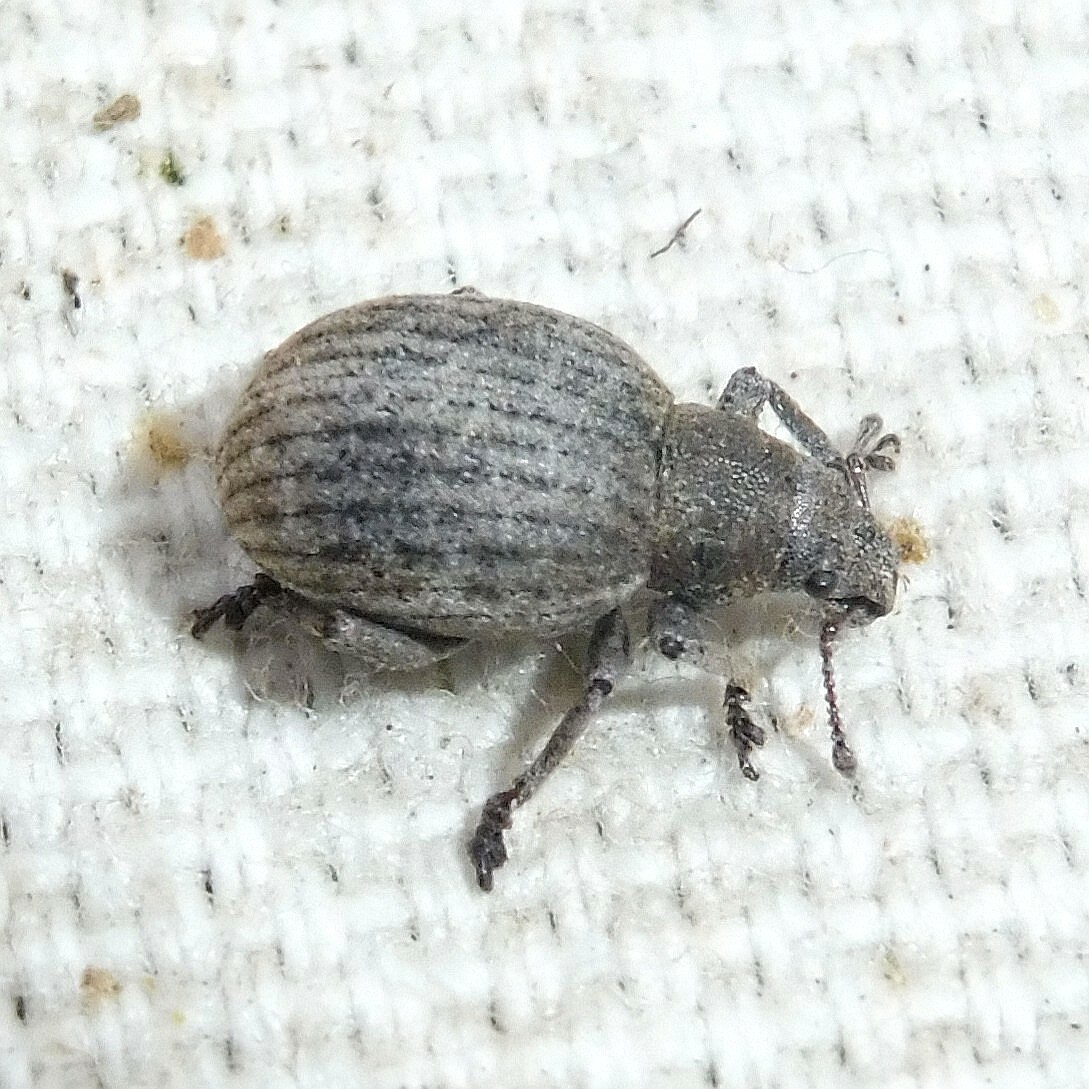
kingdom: Animalia
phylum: Arthropoda
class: Insecta
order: Coleoptera
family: Curculionidae
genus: Attactagenus
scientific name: Attactagenus plumbeus
